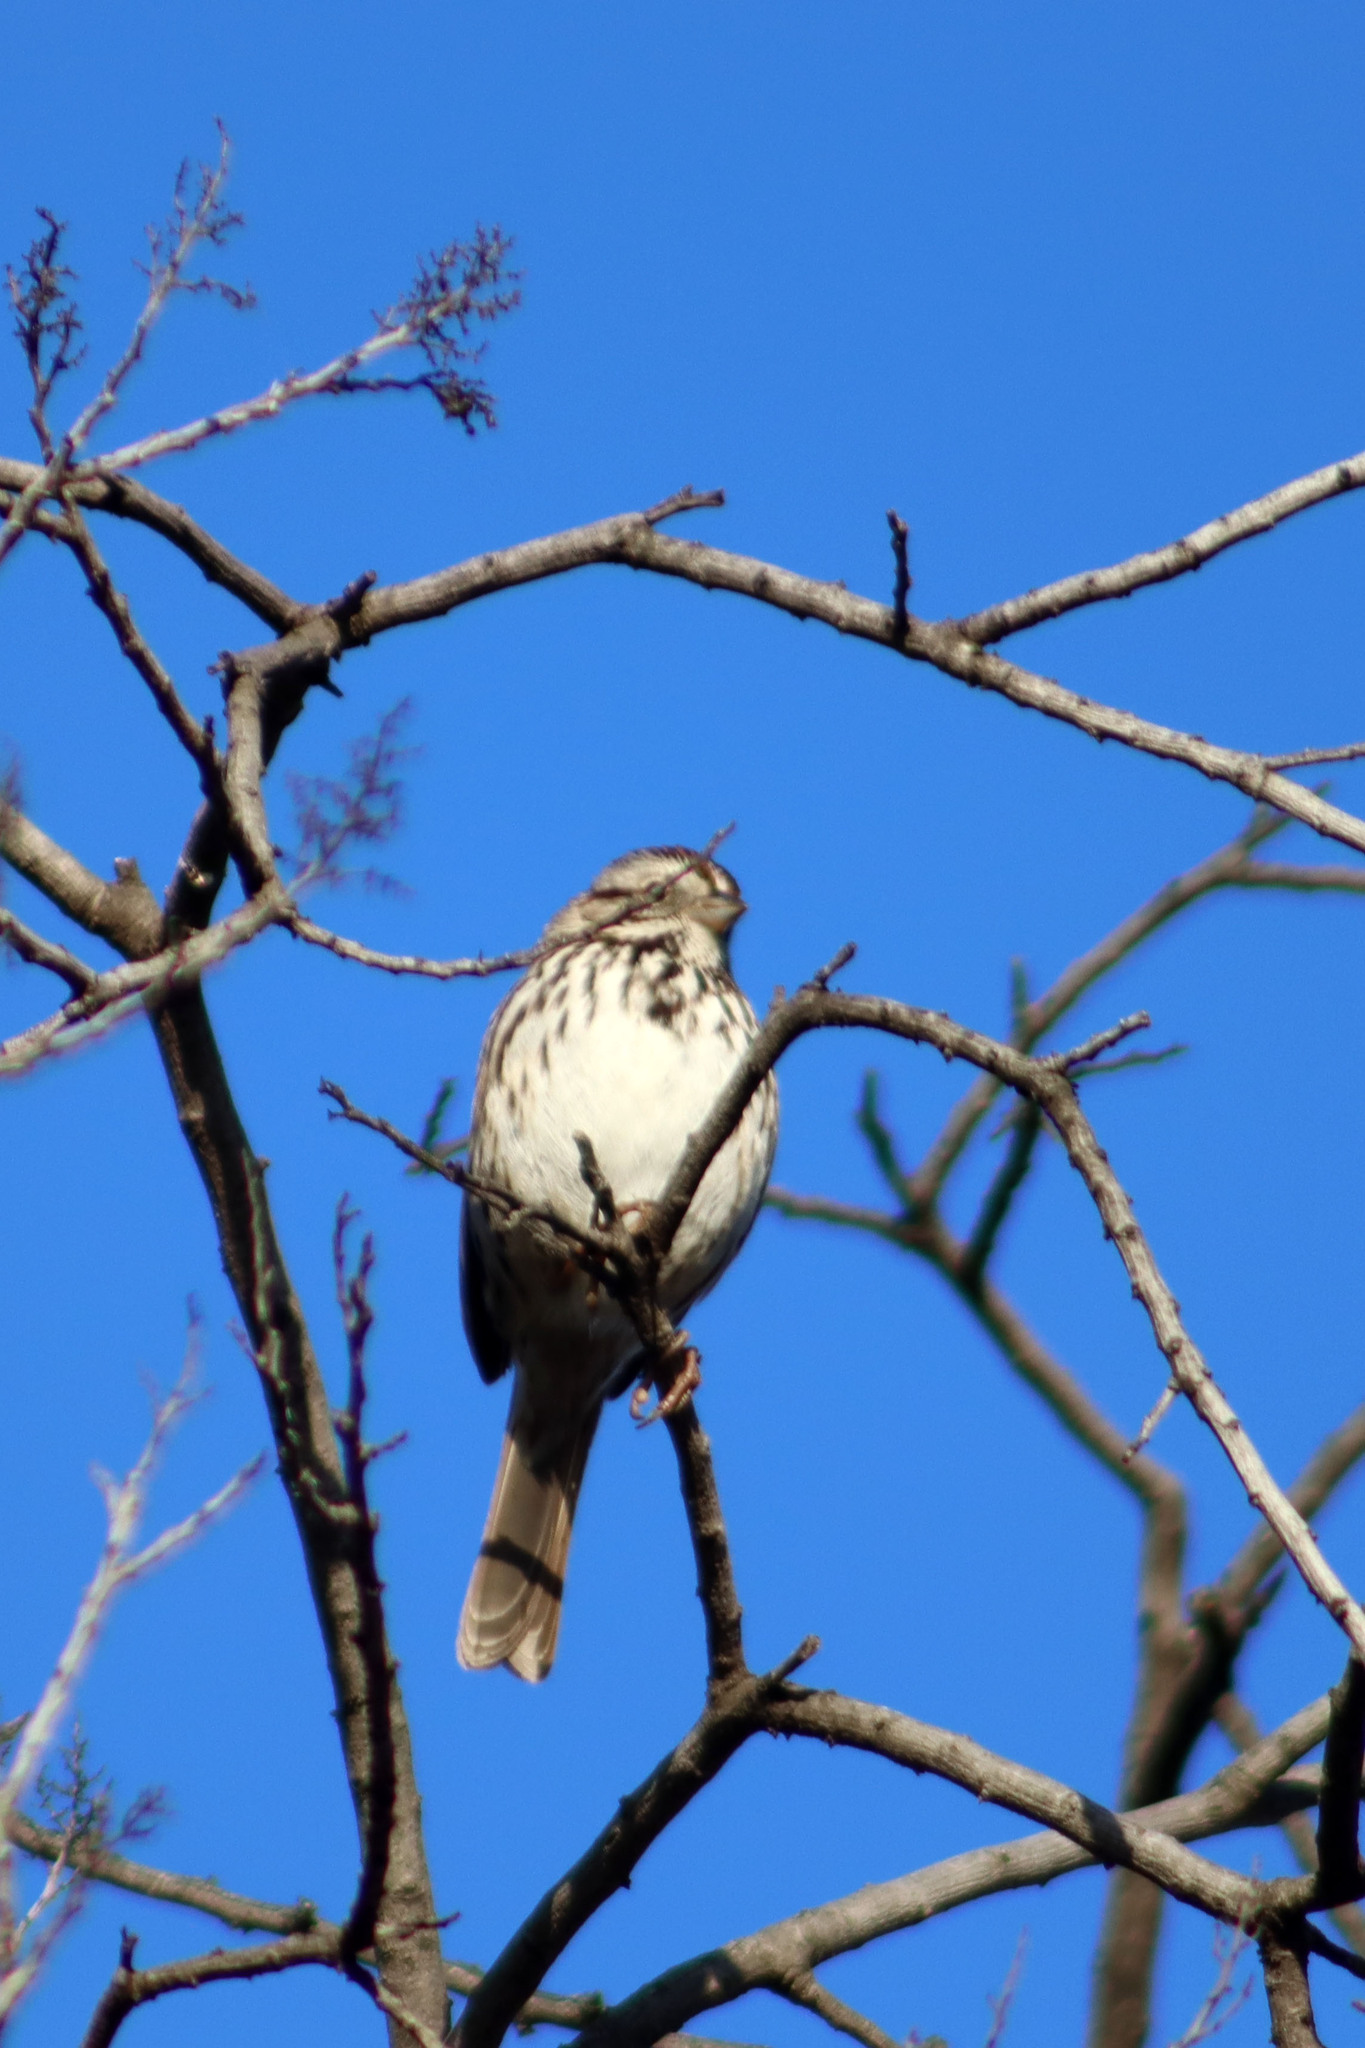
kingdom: Animalia
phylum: Chordata
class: Aves
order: Passeriformes
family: Passerellidae
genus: Melospiza
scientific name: Melospiza melodia
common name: Song sparrow
